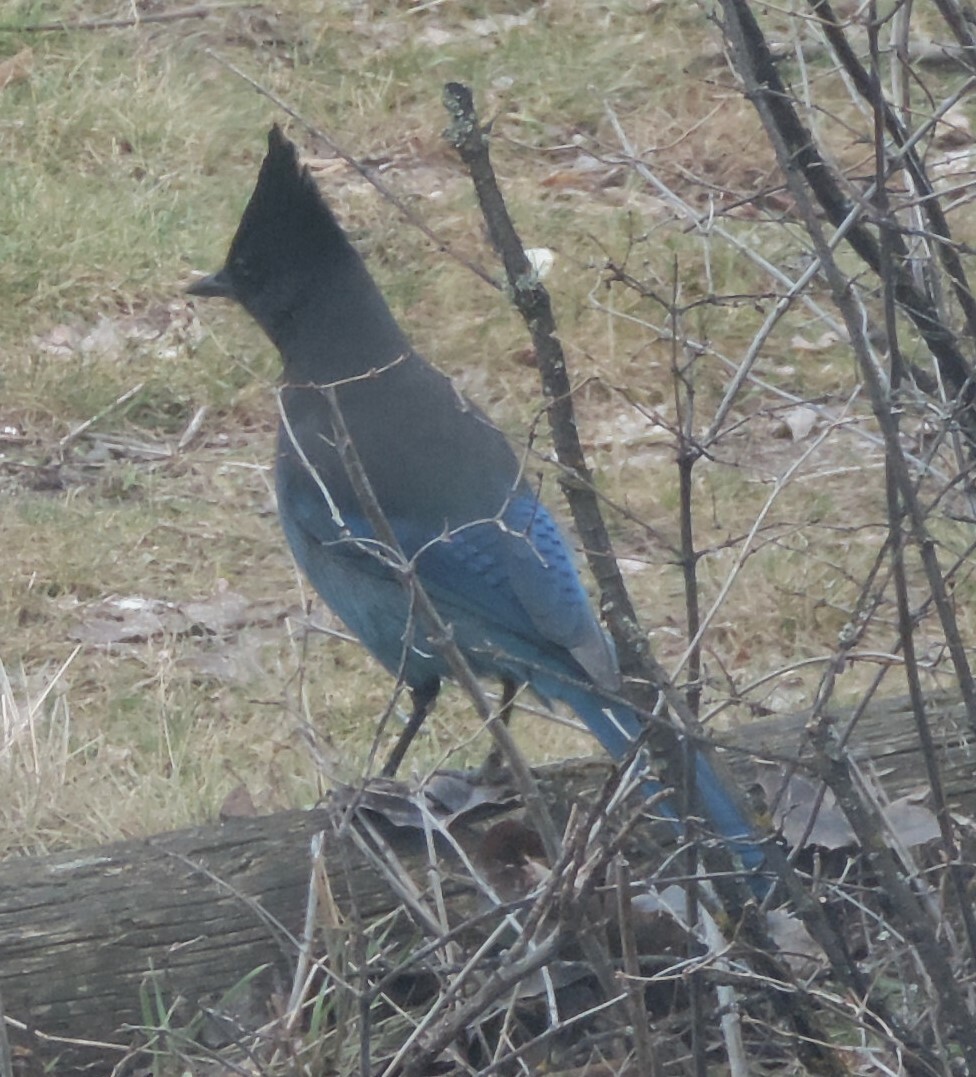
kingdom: Animalia
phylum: Chordata
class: Aves
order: Passeriformes
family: Corvidae
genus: Cyanocitta
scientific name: Cyanocitta stelleri
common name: Steller's jay
